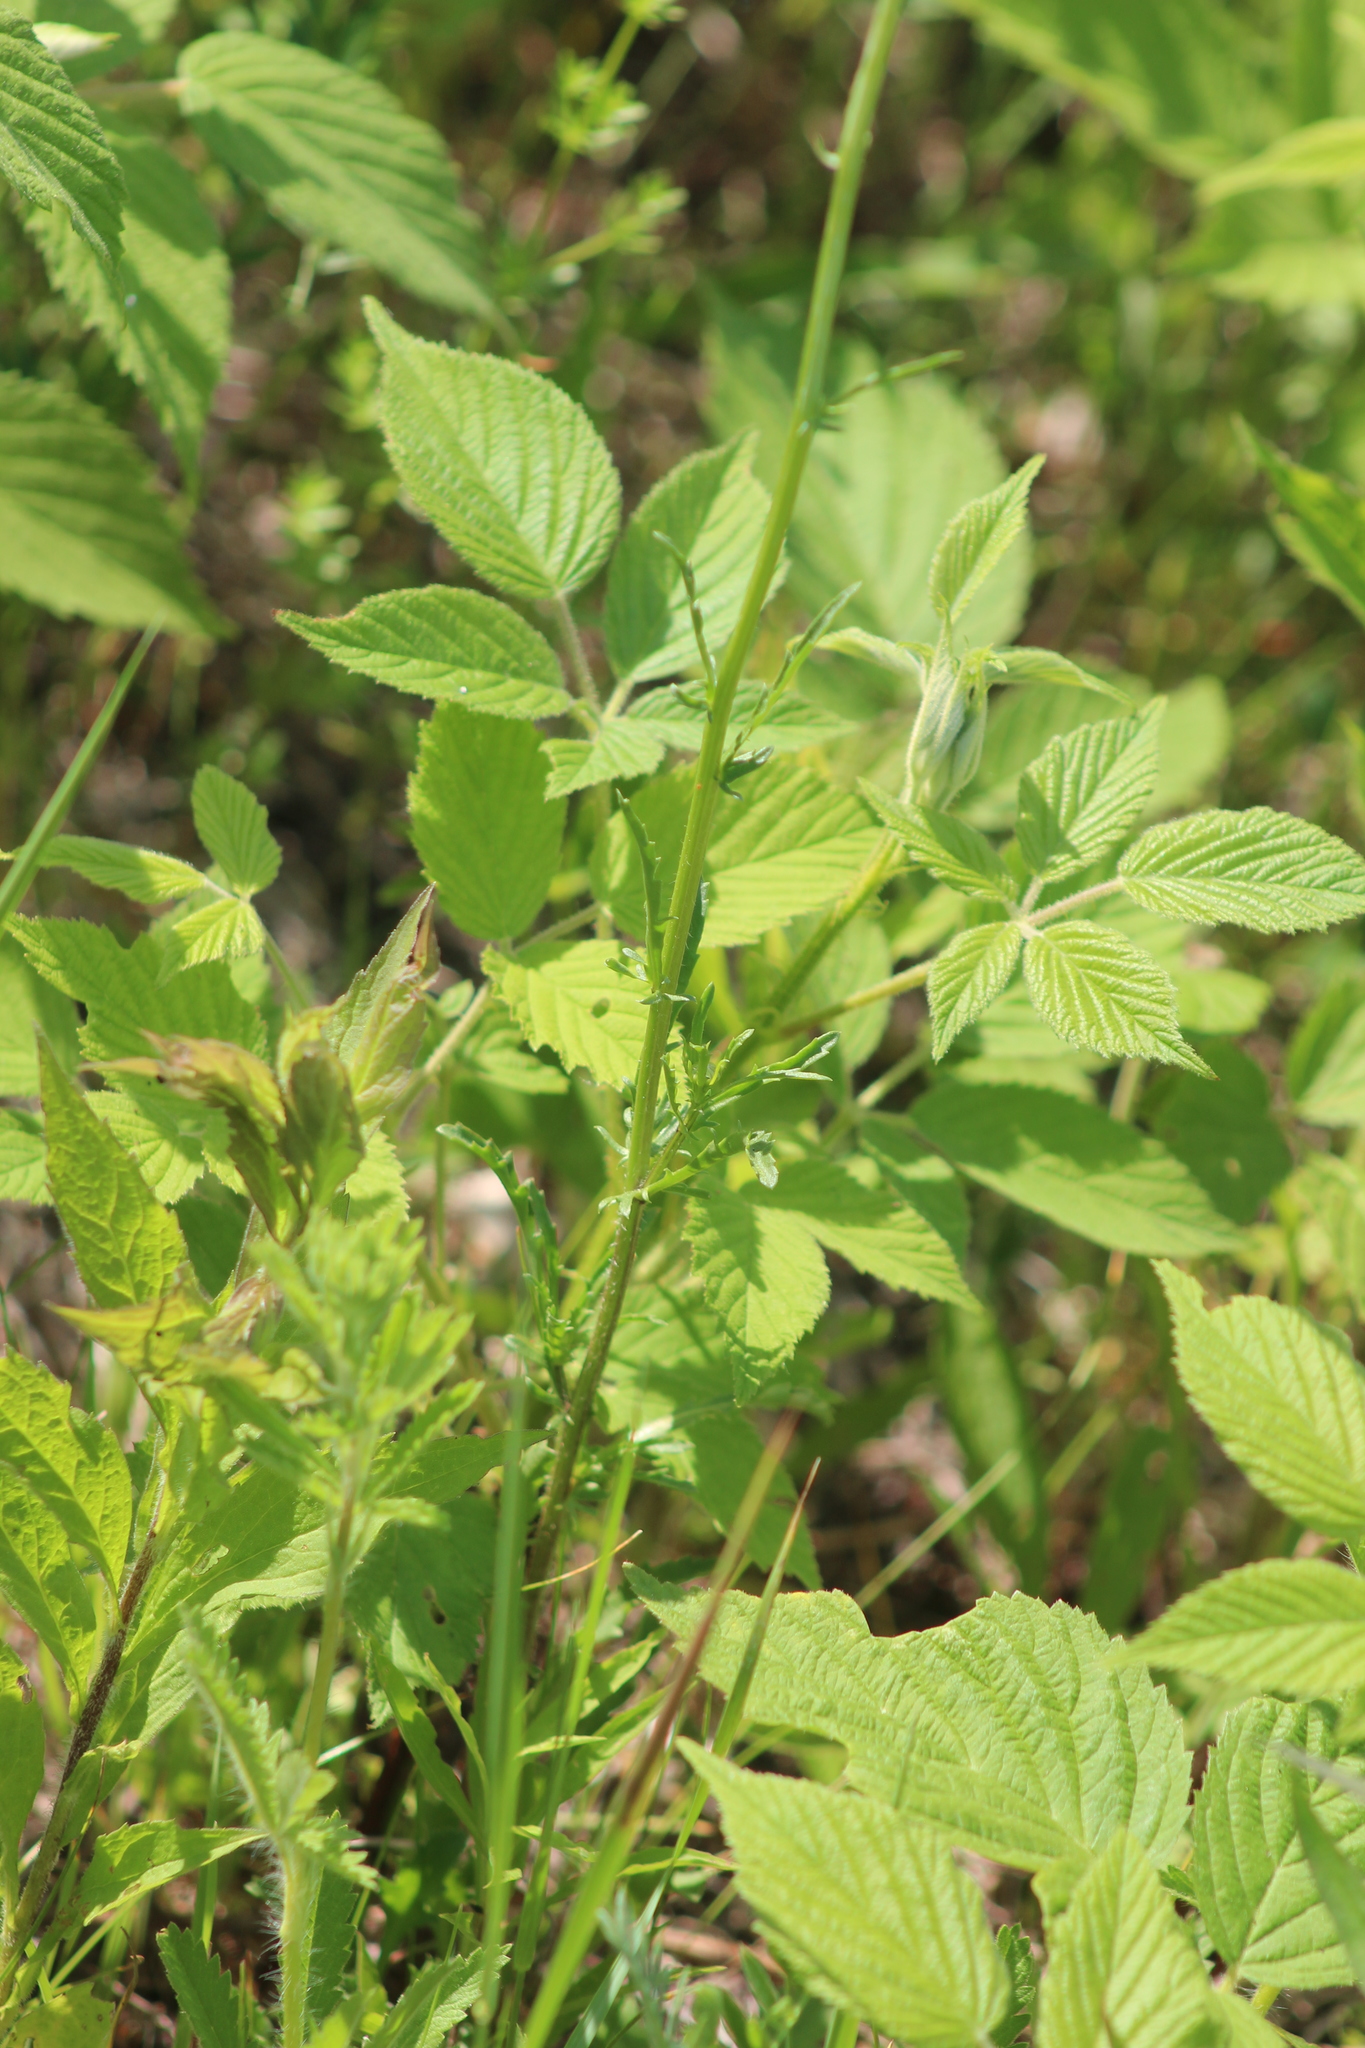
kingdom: Plantae
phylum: Tracheophyta
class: Magnoliopsida
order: Asterales
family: Asteraceae
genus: Leucanthemum
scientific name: Leucanthemum vulgare
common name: Oxeye daisy
